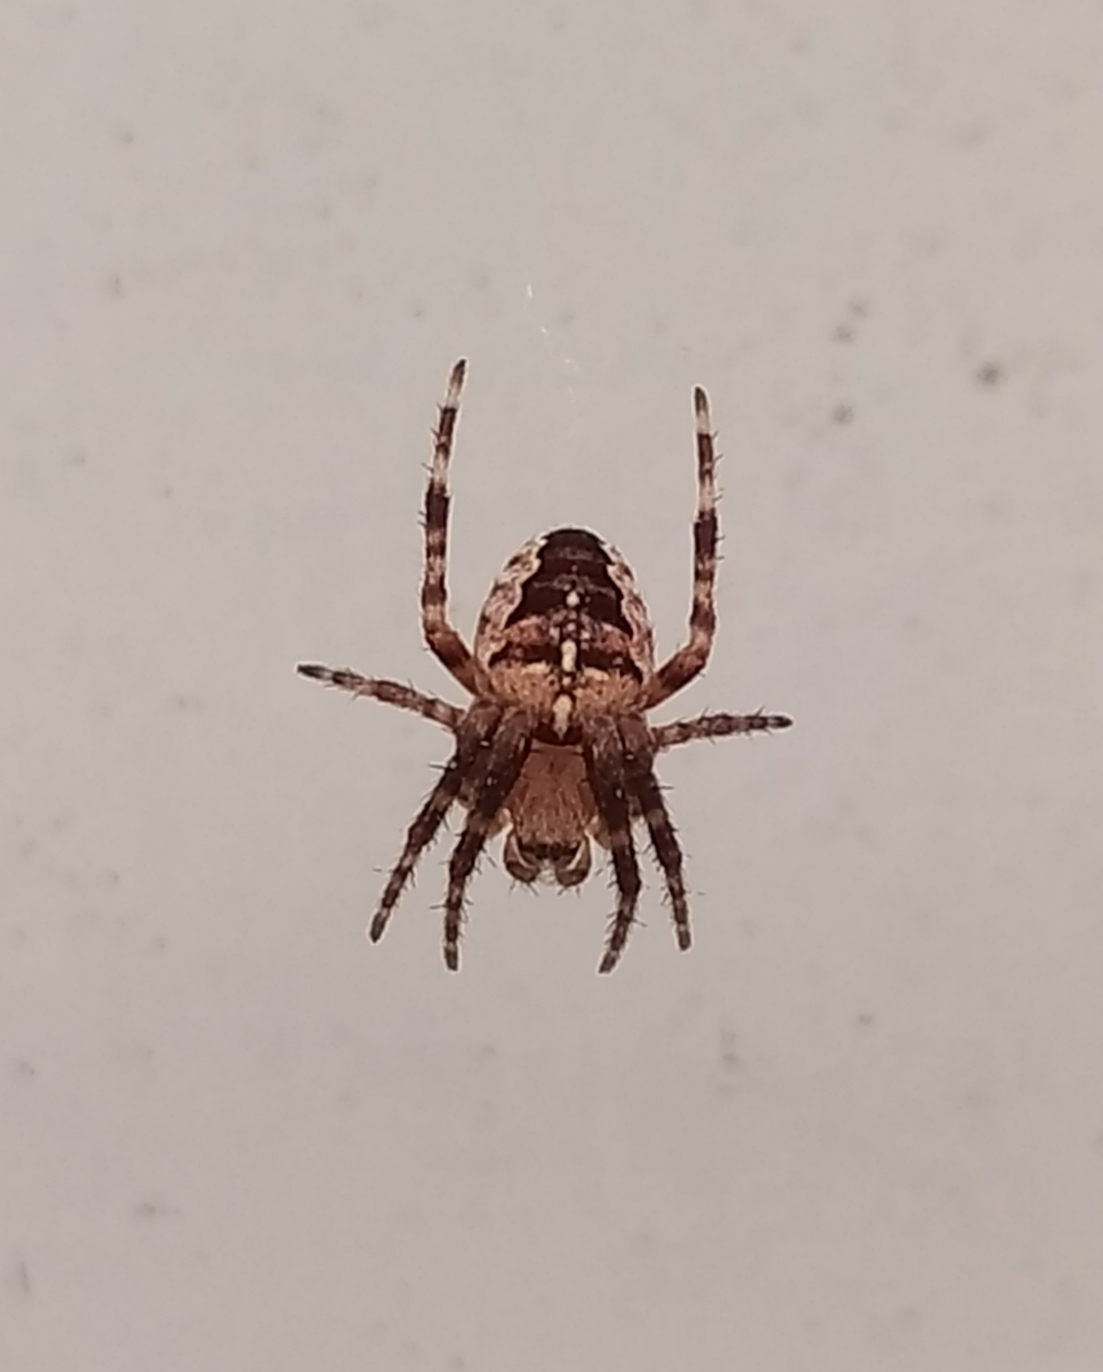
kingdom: Animalia
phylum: Arthropoda
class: Arachnida
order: Araneae
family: Araneidae
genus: Araneus
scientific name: Araneus diadematus
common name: Cross orbweaver
